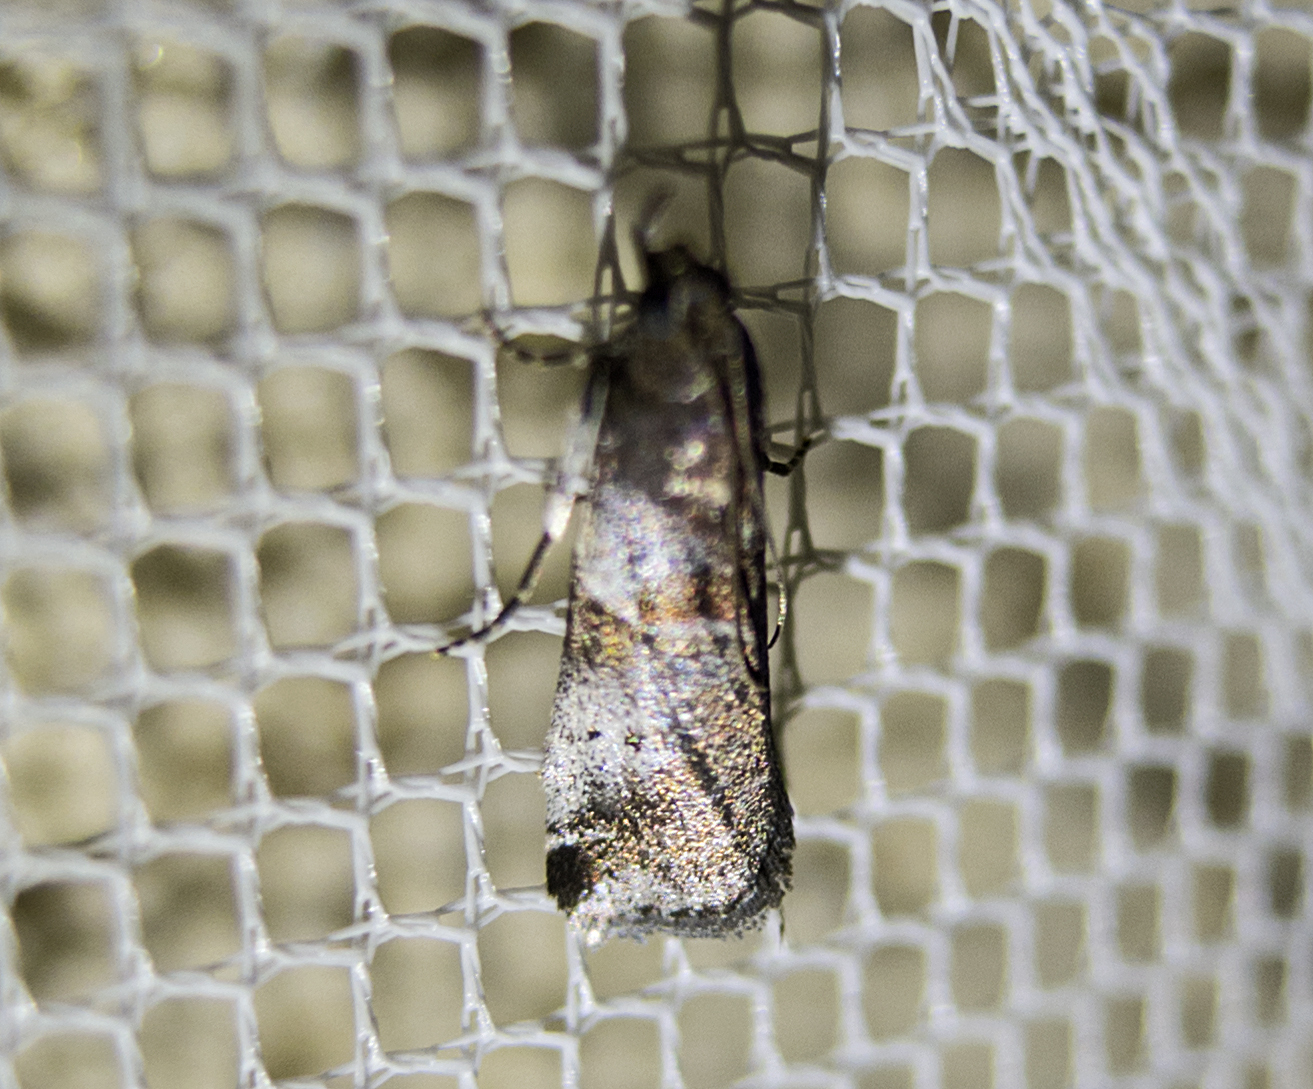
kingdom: Animalia
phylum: Arthropoda
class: Insecta
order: Lepidoptera
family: Pyralidae
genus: Acrobasis
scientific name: Acrobasis glaucella
